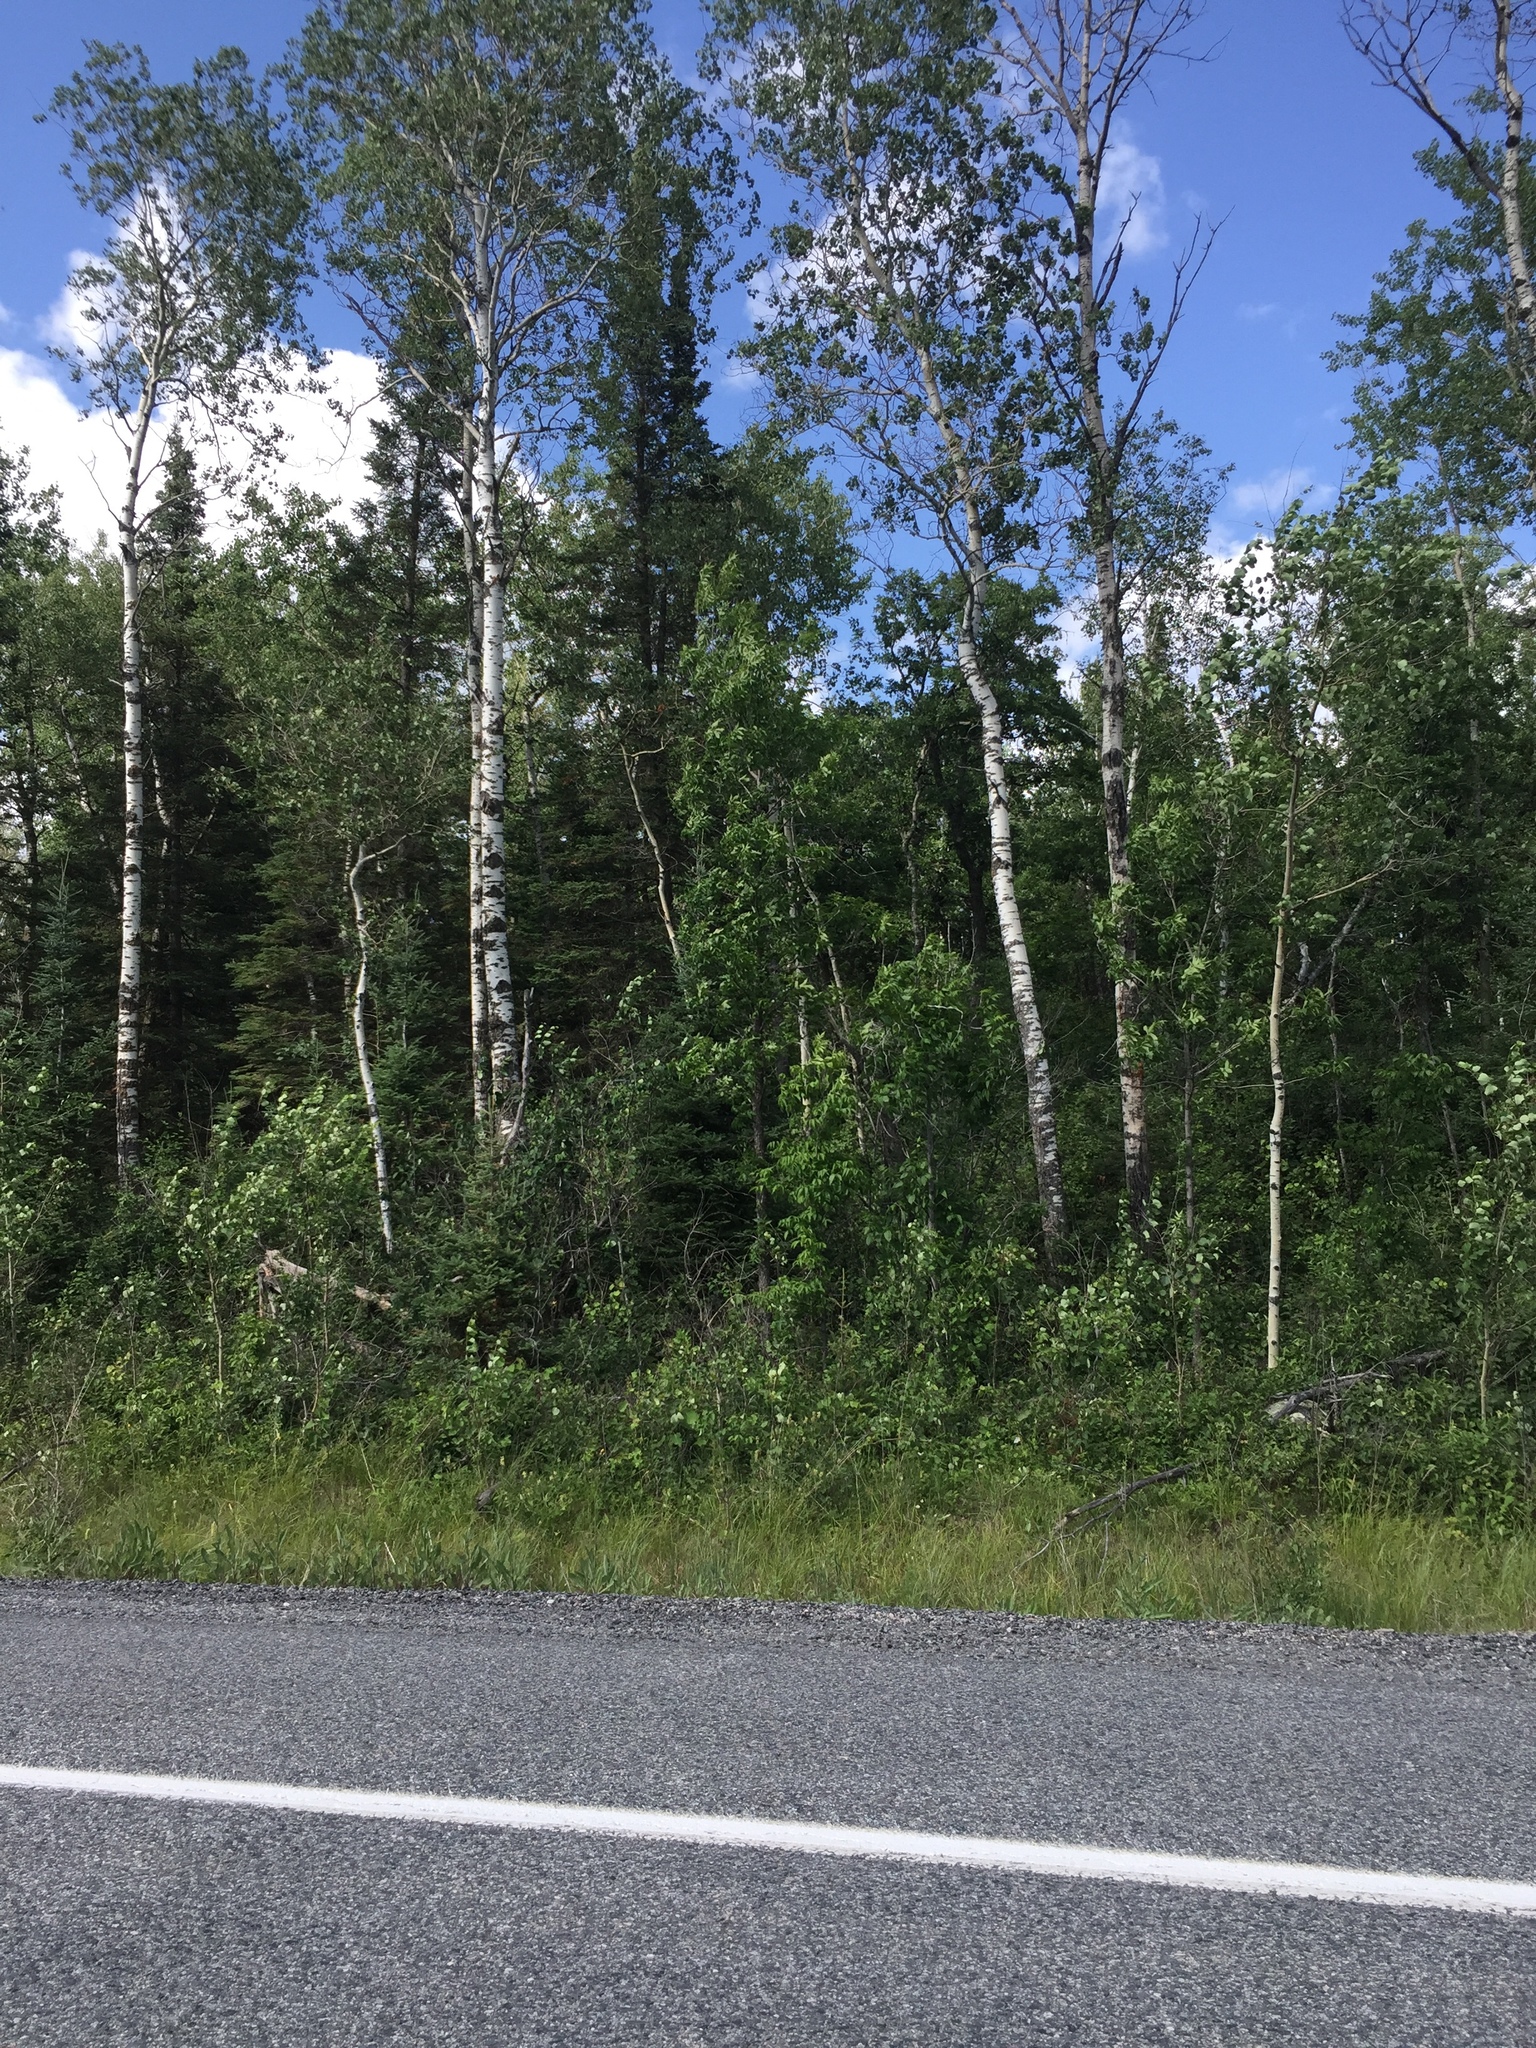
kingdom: Plantae
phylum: Tracheophyta
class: Magnoliopsida
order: Malpighiales
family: Salicaceae
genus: Populus
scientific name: Populus tremuloides
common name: Quaking aspen
